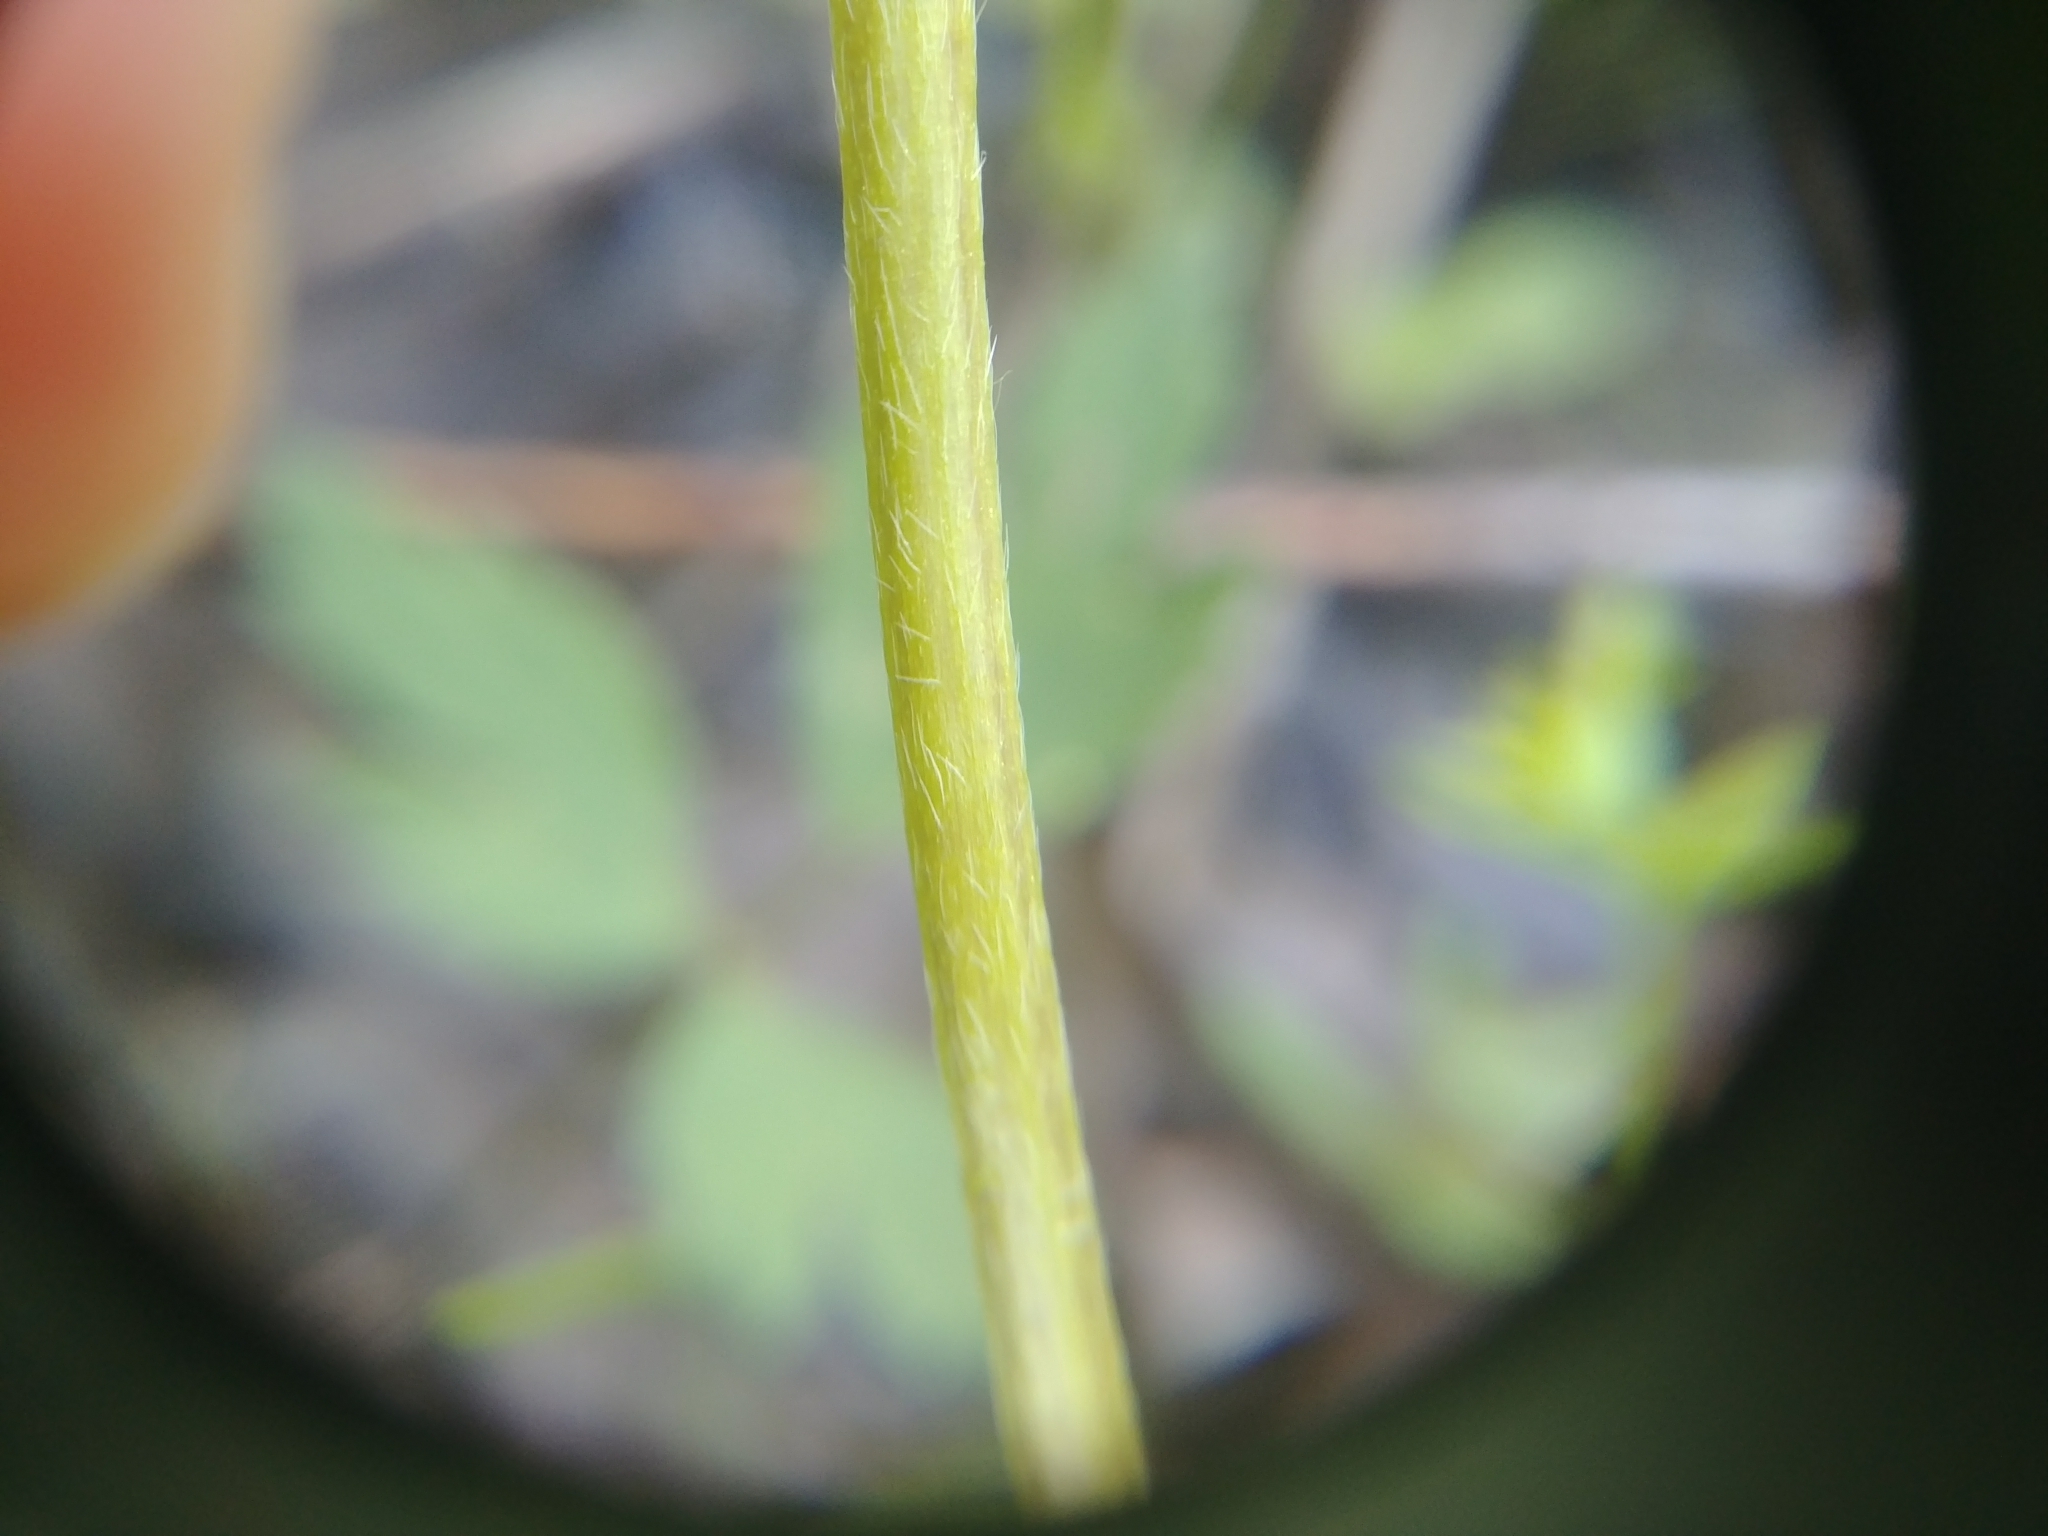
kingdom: Plantae
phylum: Tracheophyta
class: Magnoliopsida
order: Ranunculales
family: Ranunculaceae
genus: Ranunculus
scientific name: Ranunculus hispidus
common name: Bristly buttercup
